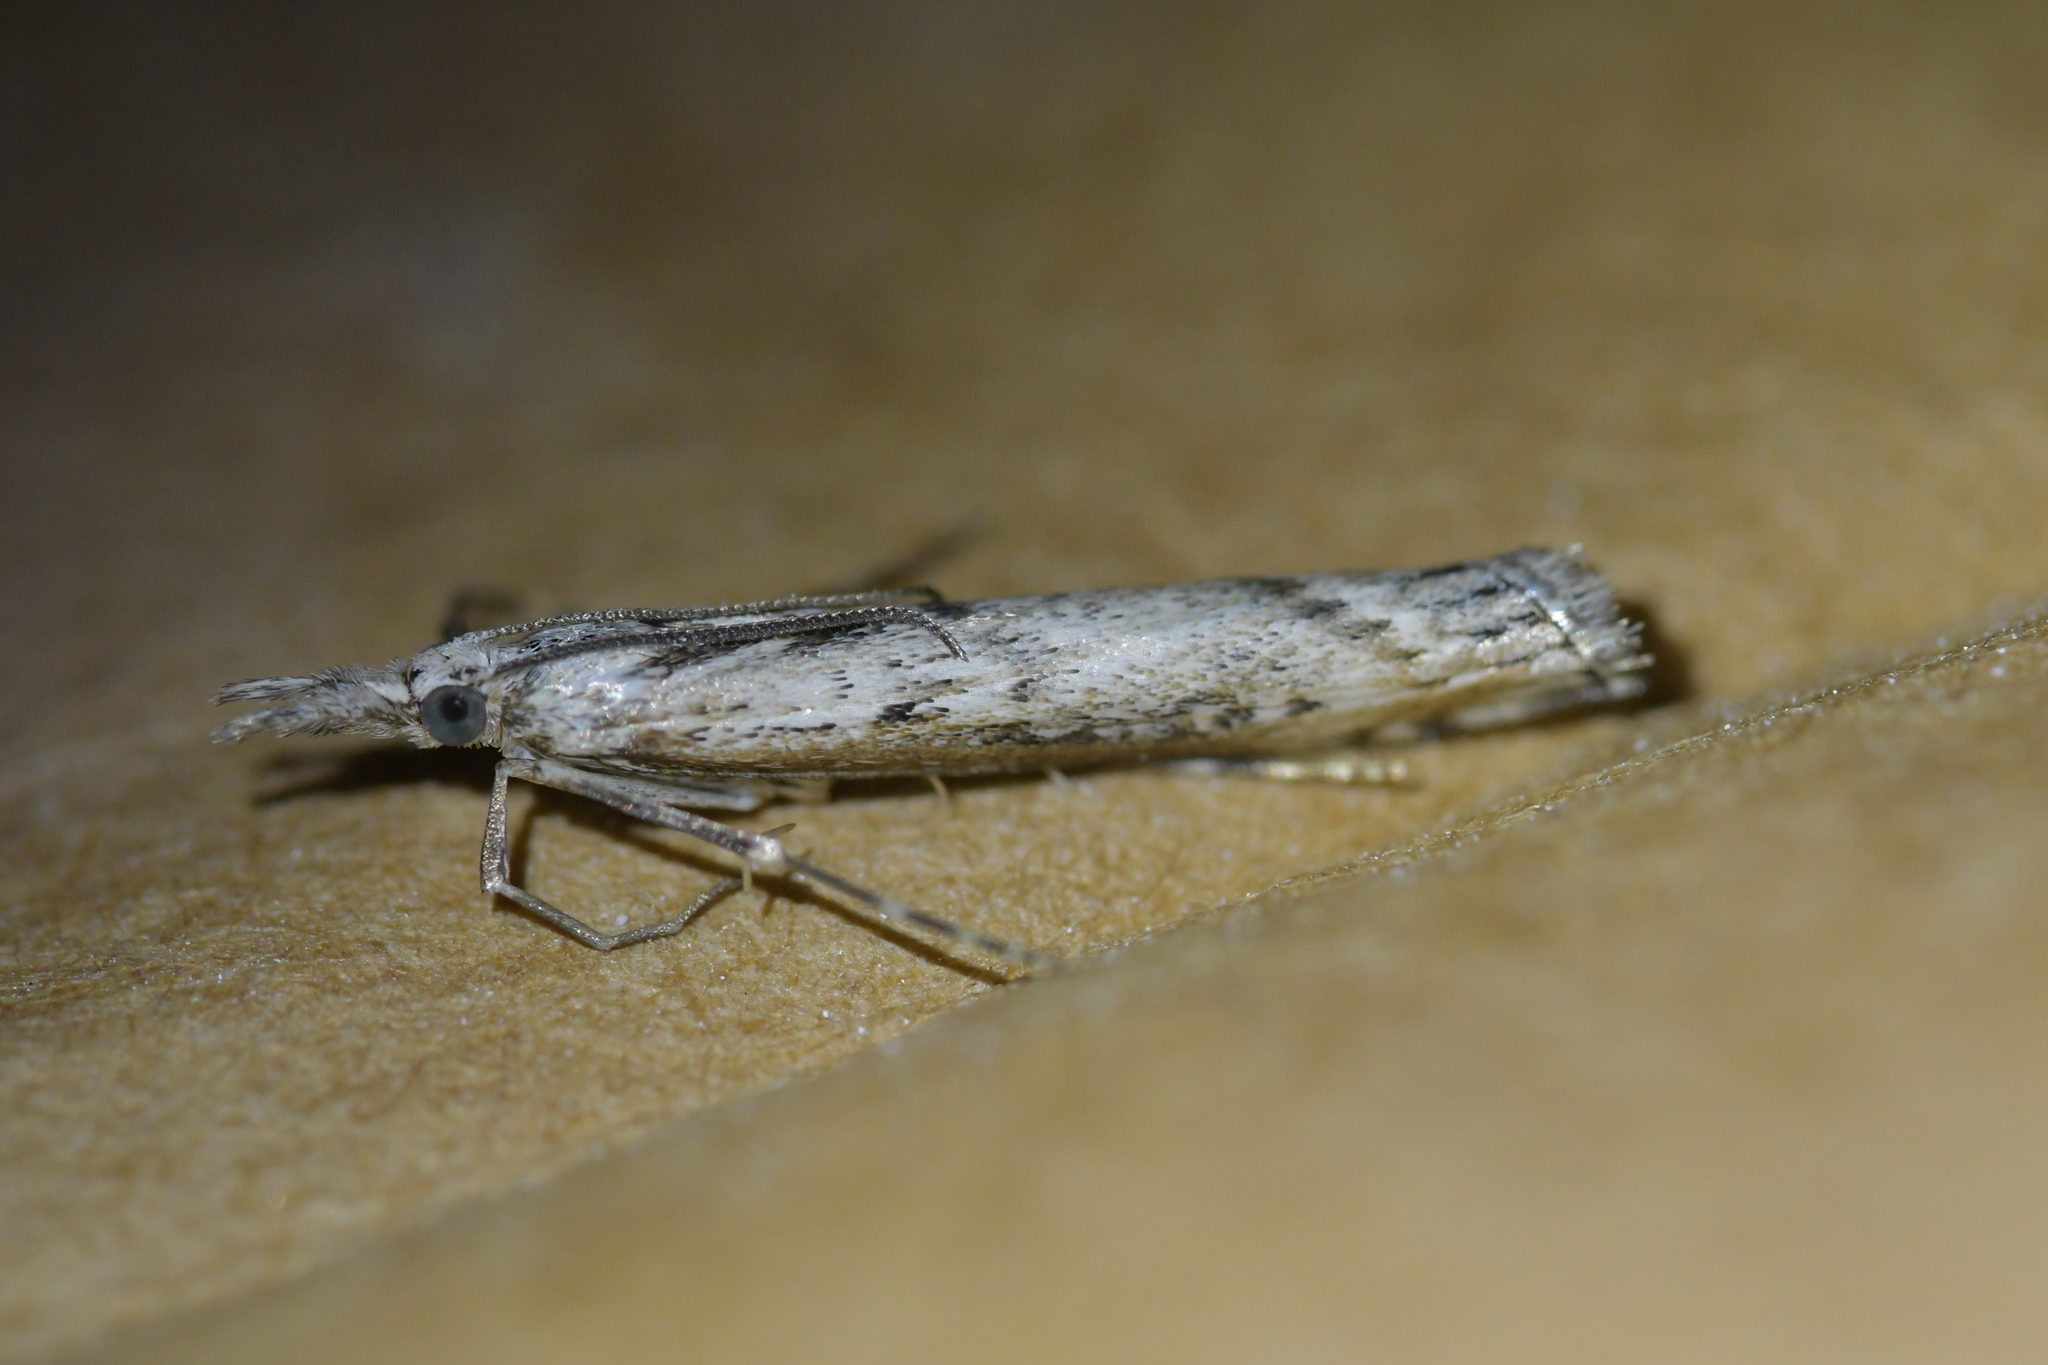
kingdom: Animalia
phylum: Arthropoda
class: Insecta
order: Lepidoptera
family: Crambidae
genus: Orocrambus
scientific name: Orocrambus cyclopicus
